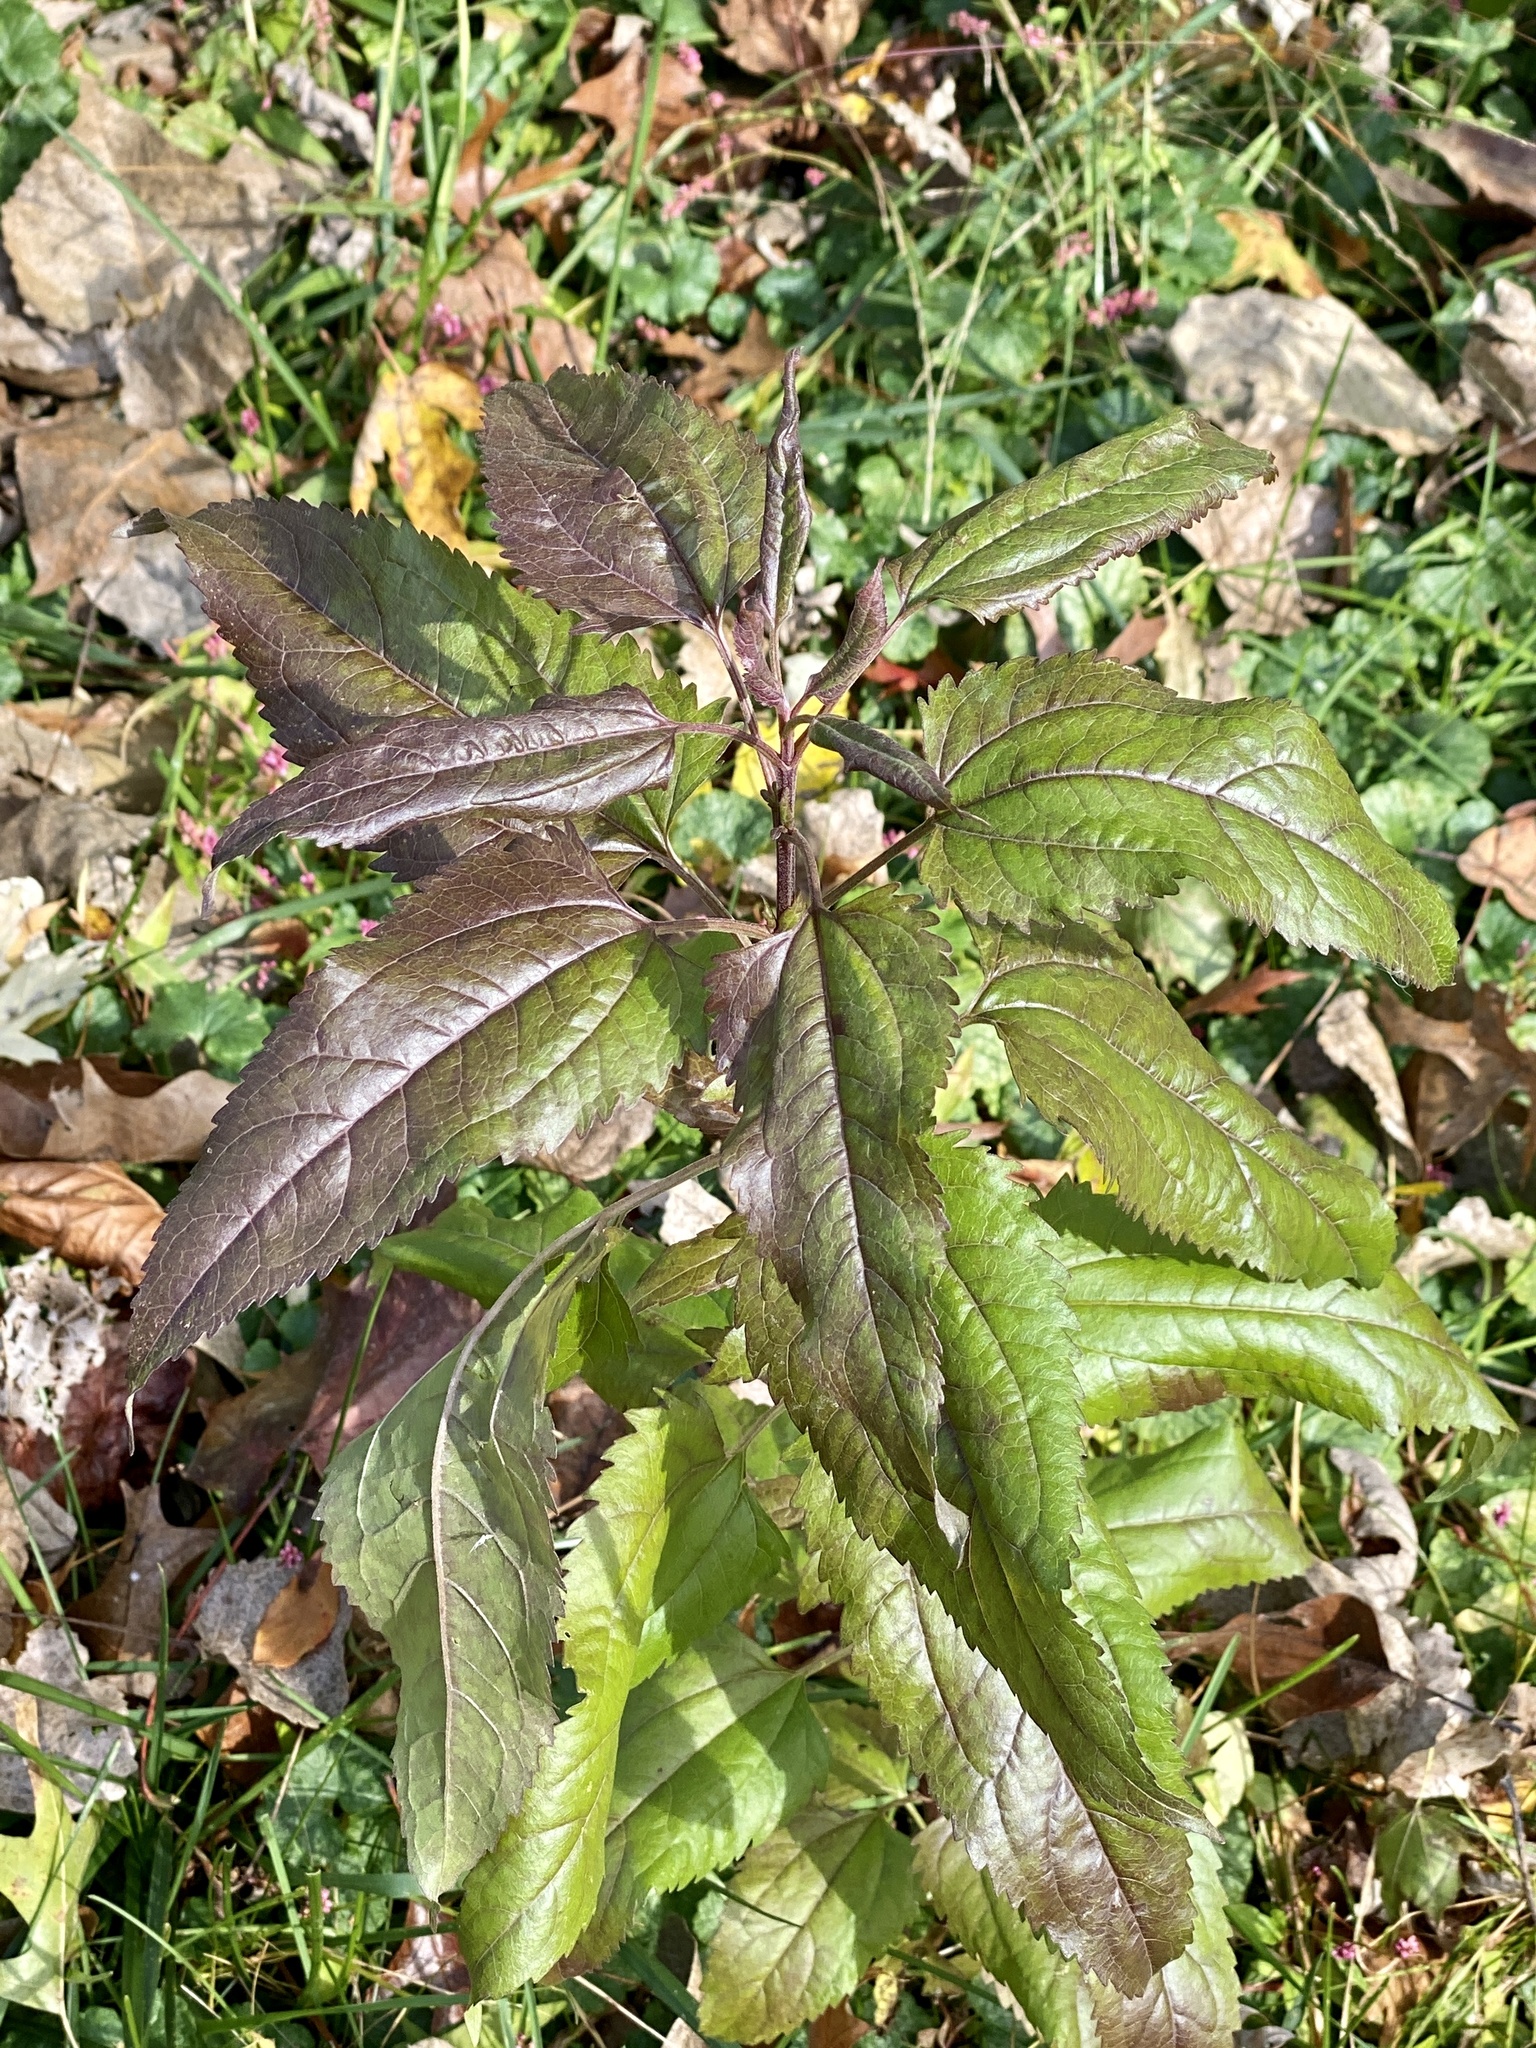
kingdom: Plantae
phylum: Tracheophyta
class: Magnoliopsida
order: Asterales
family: Asteraceae
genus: Eupatorium
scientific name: Eupatorium serotinum
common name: Late boneset
